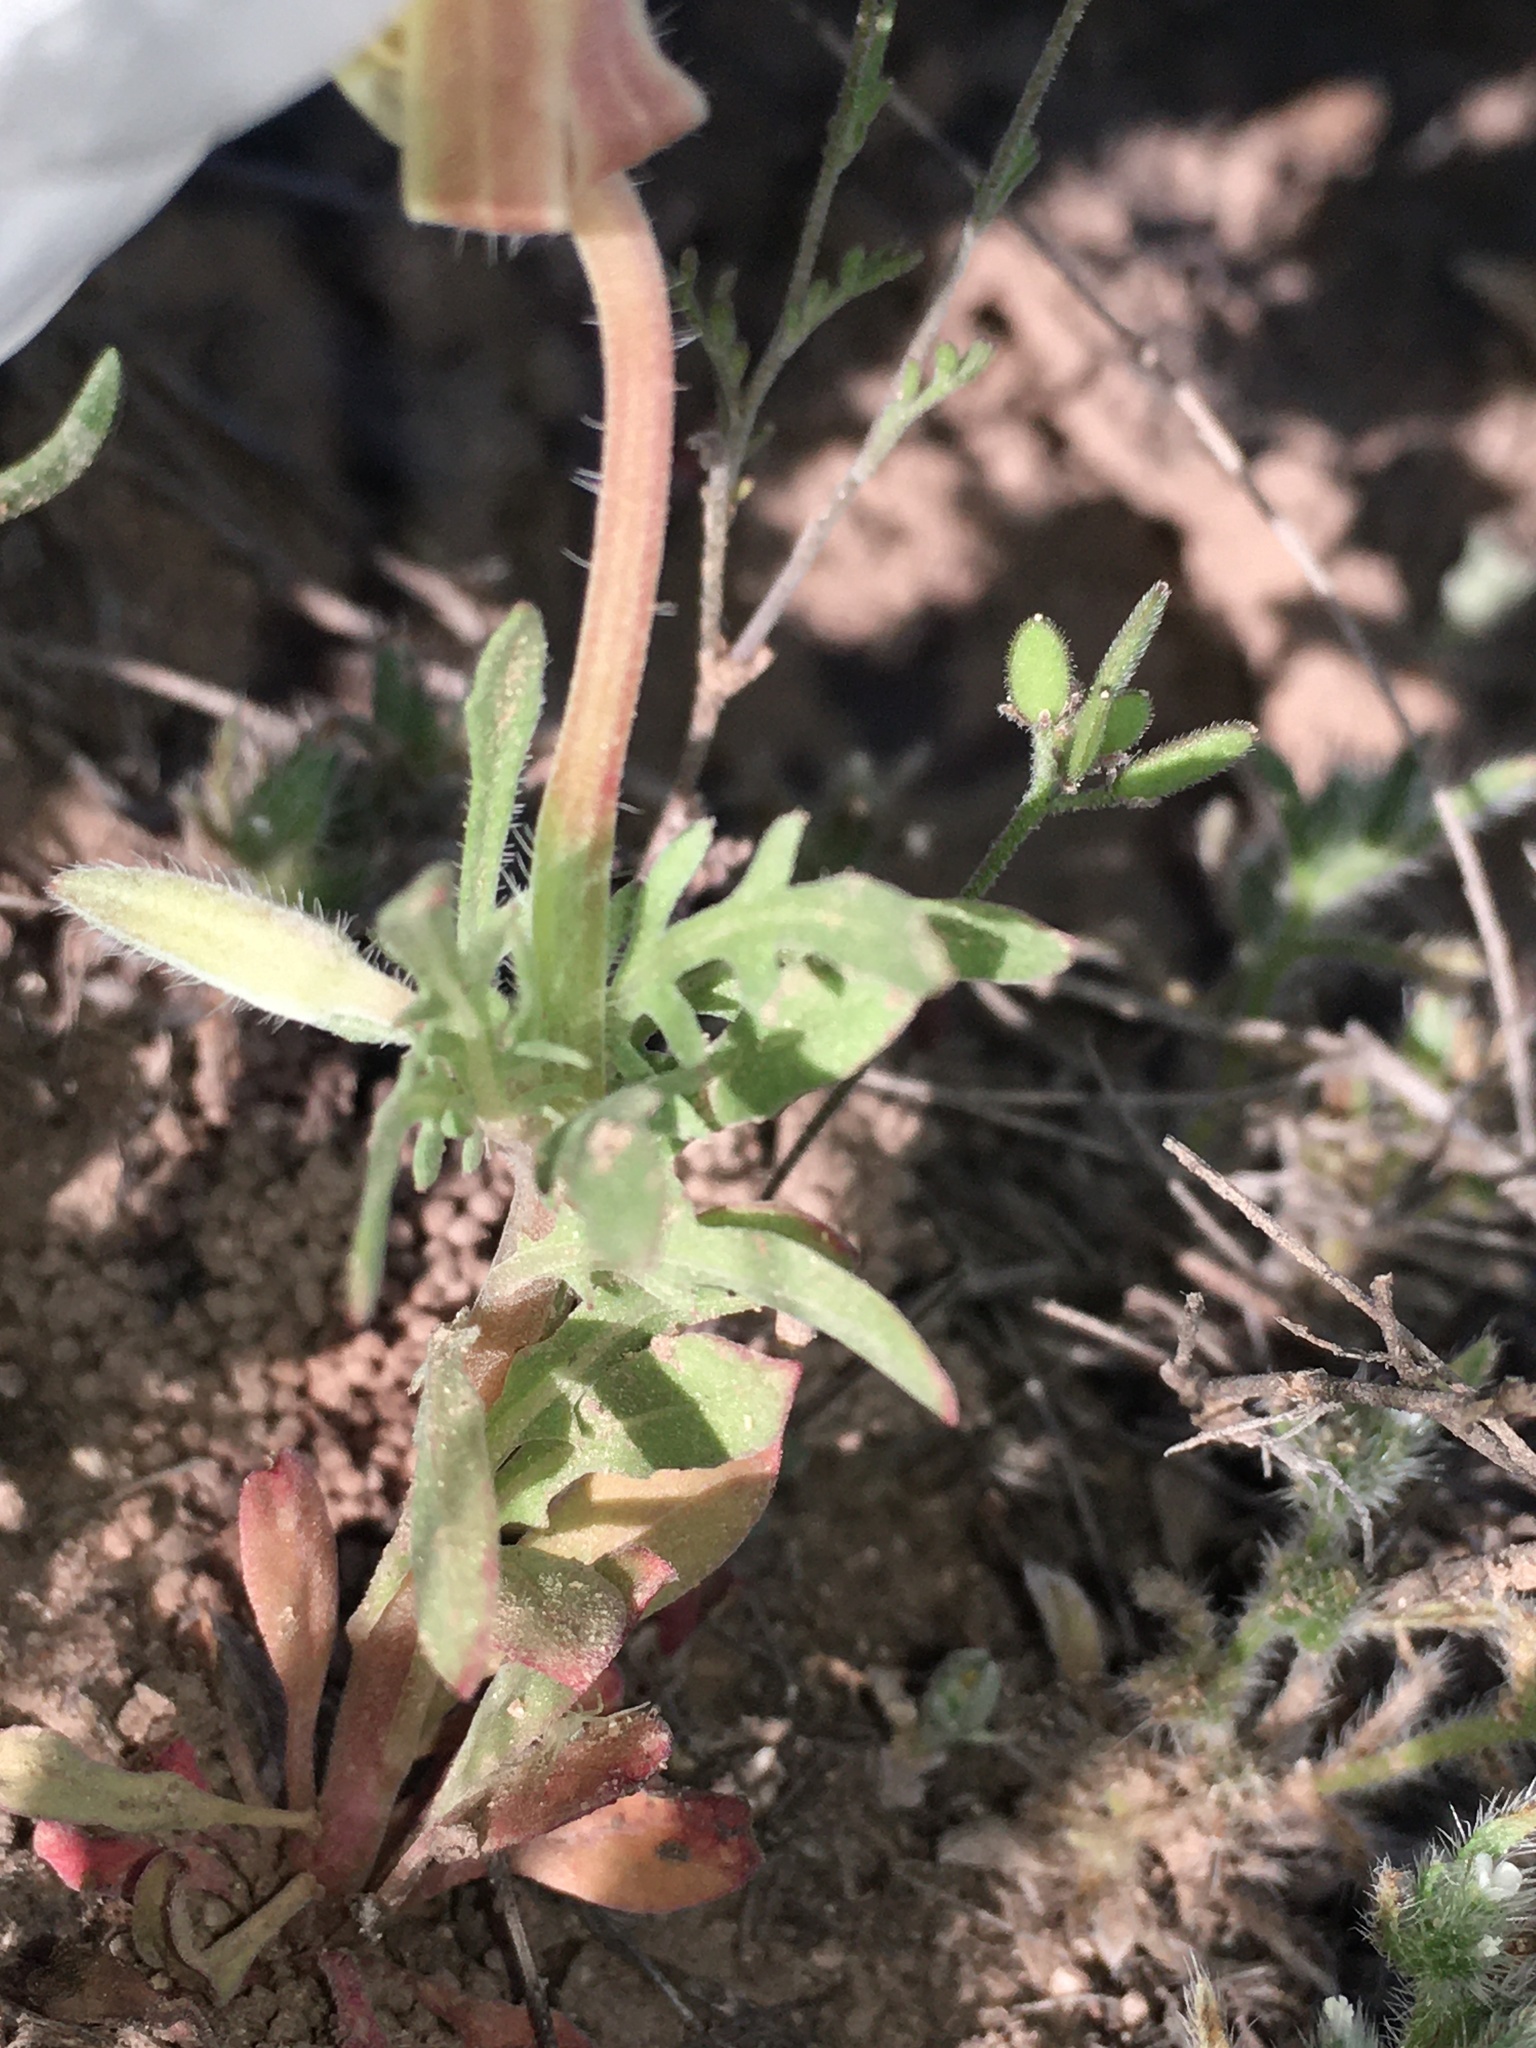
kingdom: Plantae
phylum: Tracheophyta
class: Magnoliopsida
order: Myrtales
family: Onagraceae
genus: Oenothera
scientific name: Oenothera albicaulis
